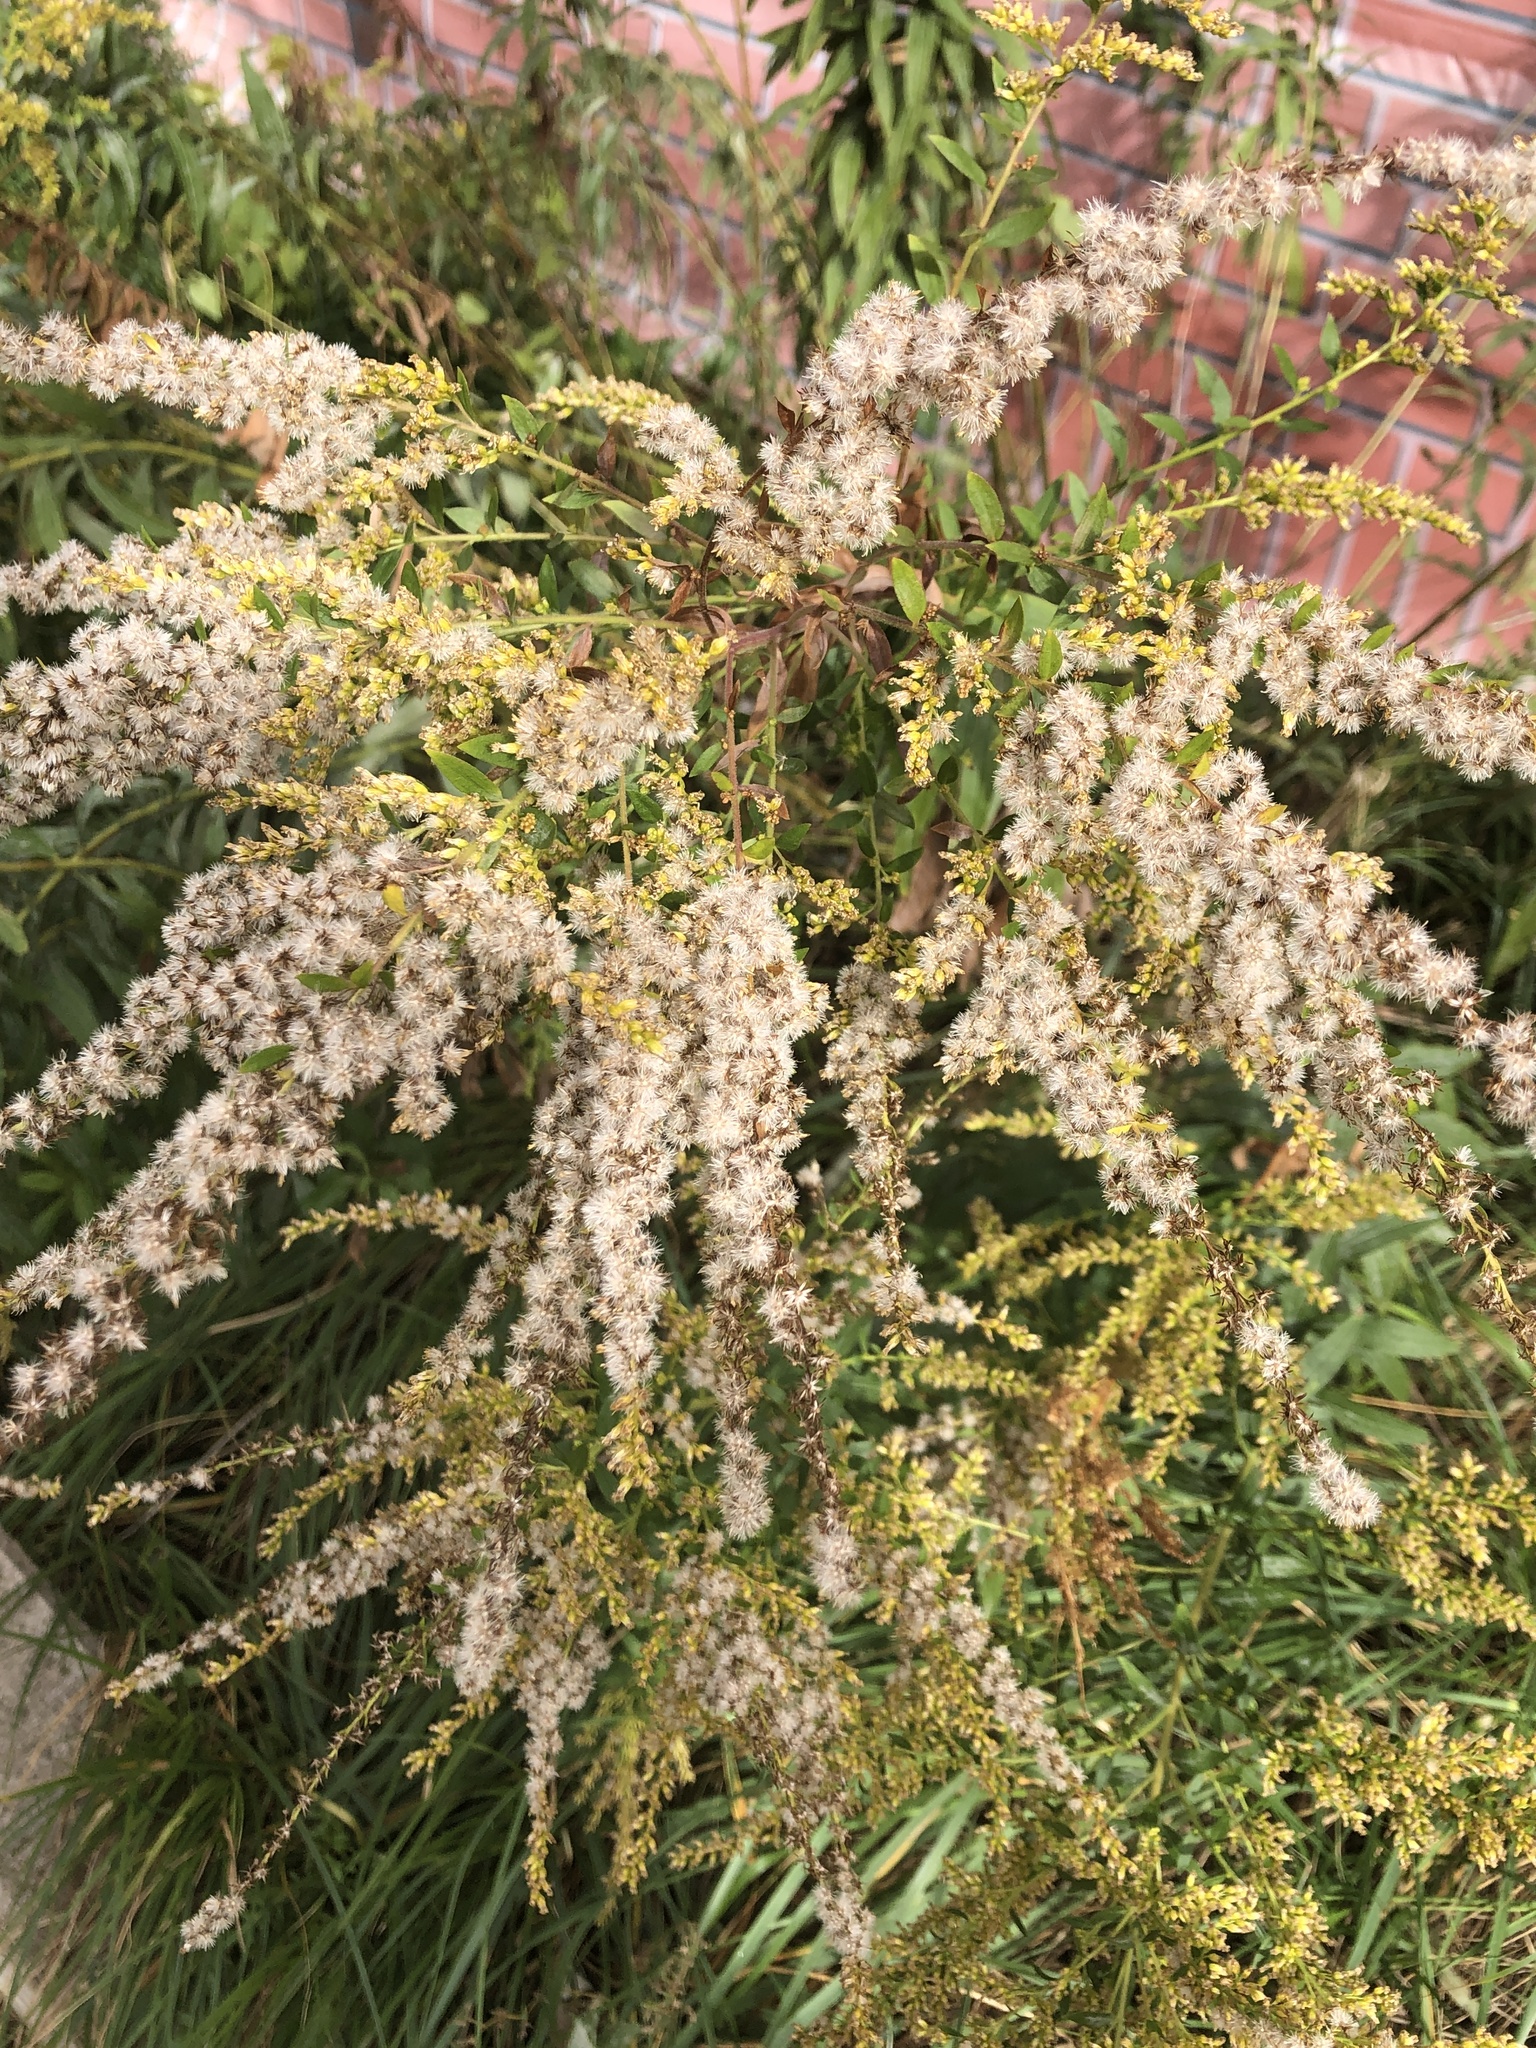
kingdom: Plantae
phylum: Tracheophyta
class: Magnoliopsida
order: Asterales
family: Asteraceae
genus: Solidago
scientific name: Solidago canadensis
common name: Canada goldenrod
